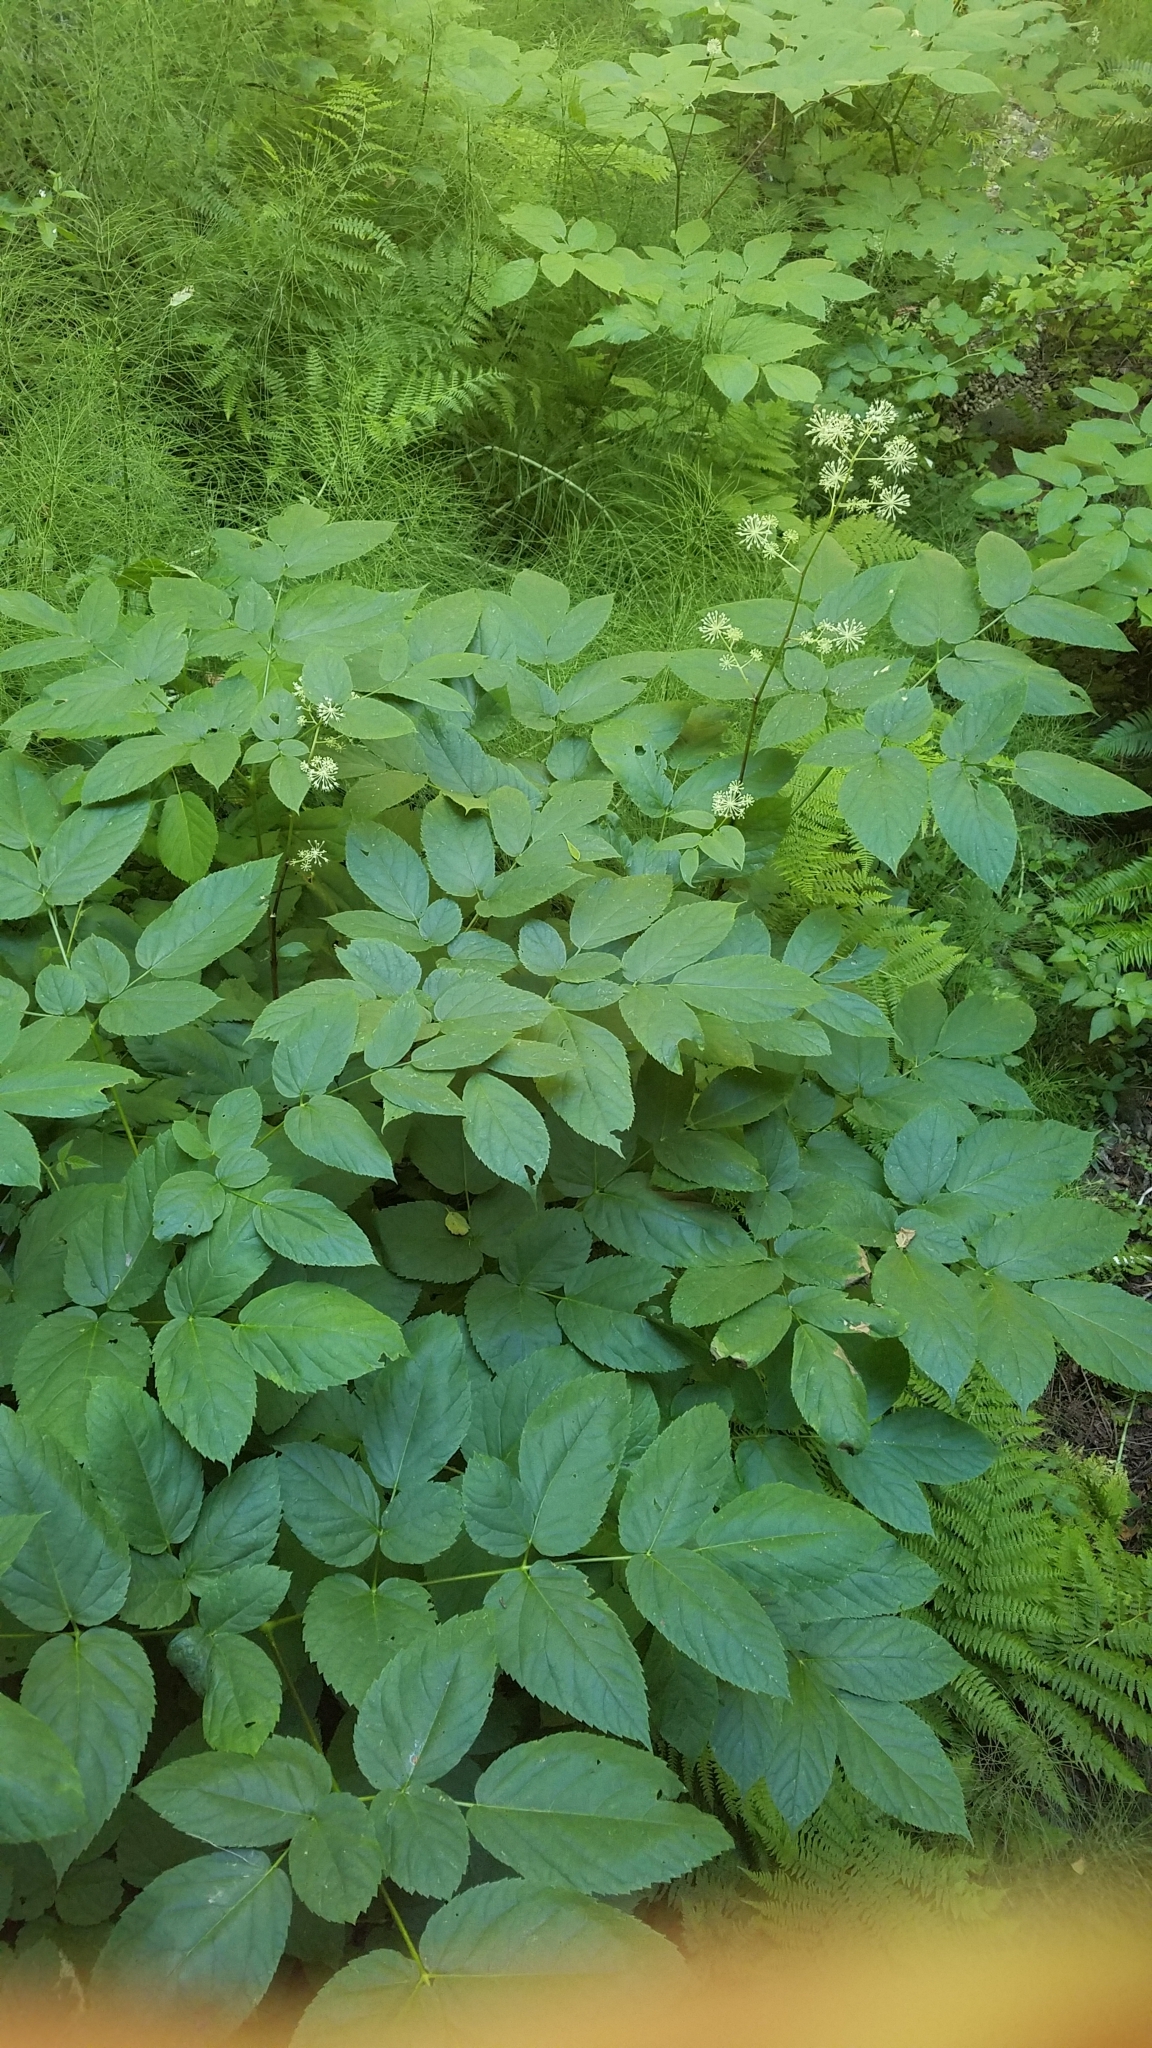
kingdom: Plantae
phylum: Tracheophyta
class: Magnoliopsida
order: Apiales
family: Araliaceae
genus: Aralia
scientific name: Aralia californica
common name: California-ginseng
